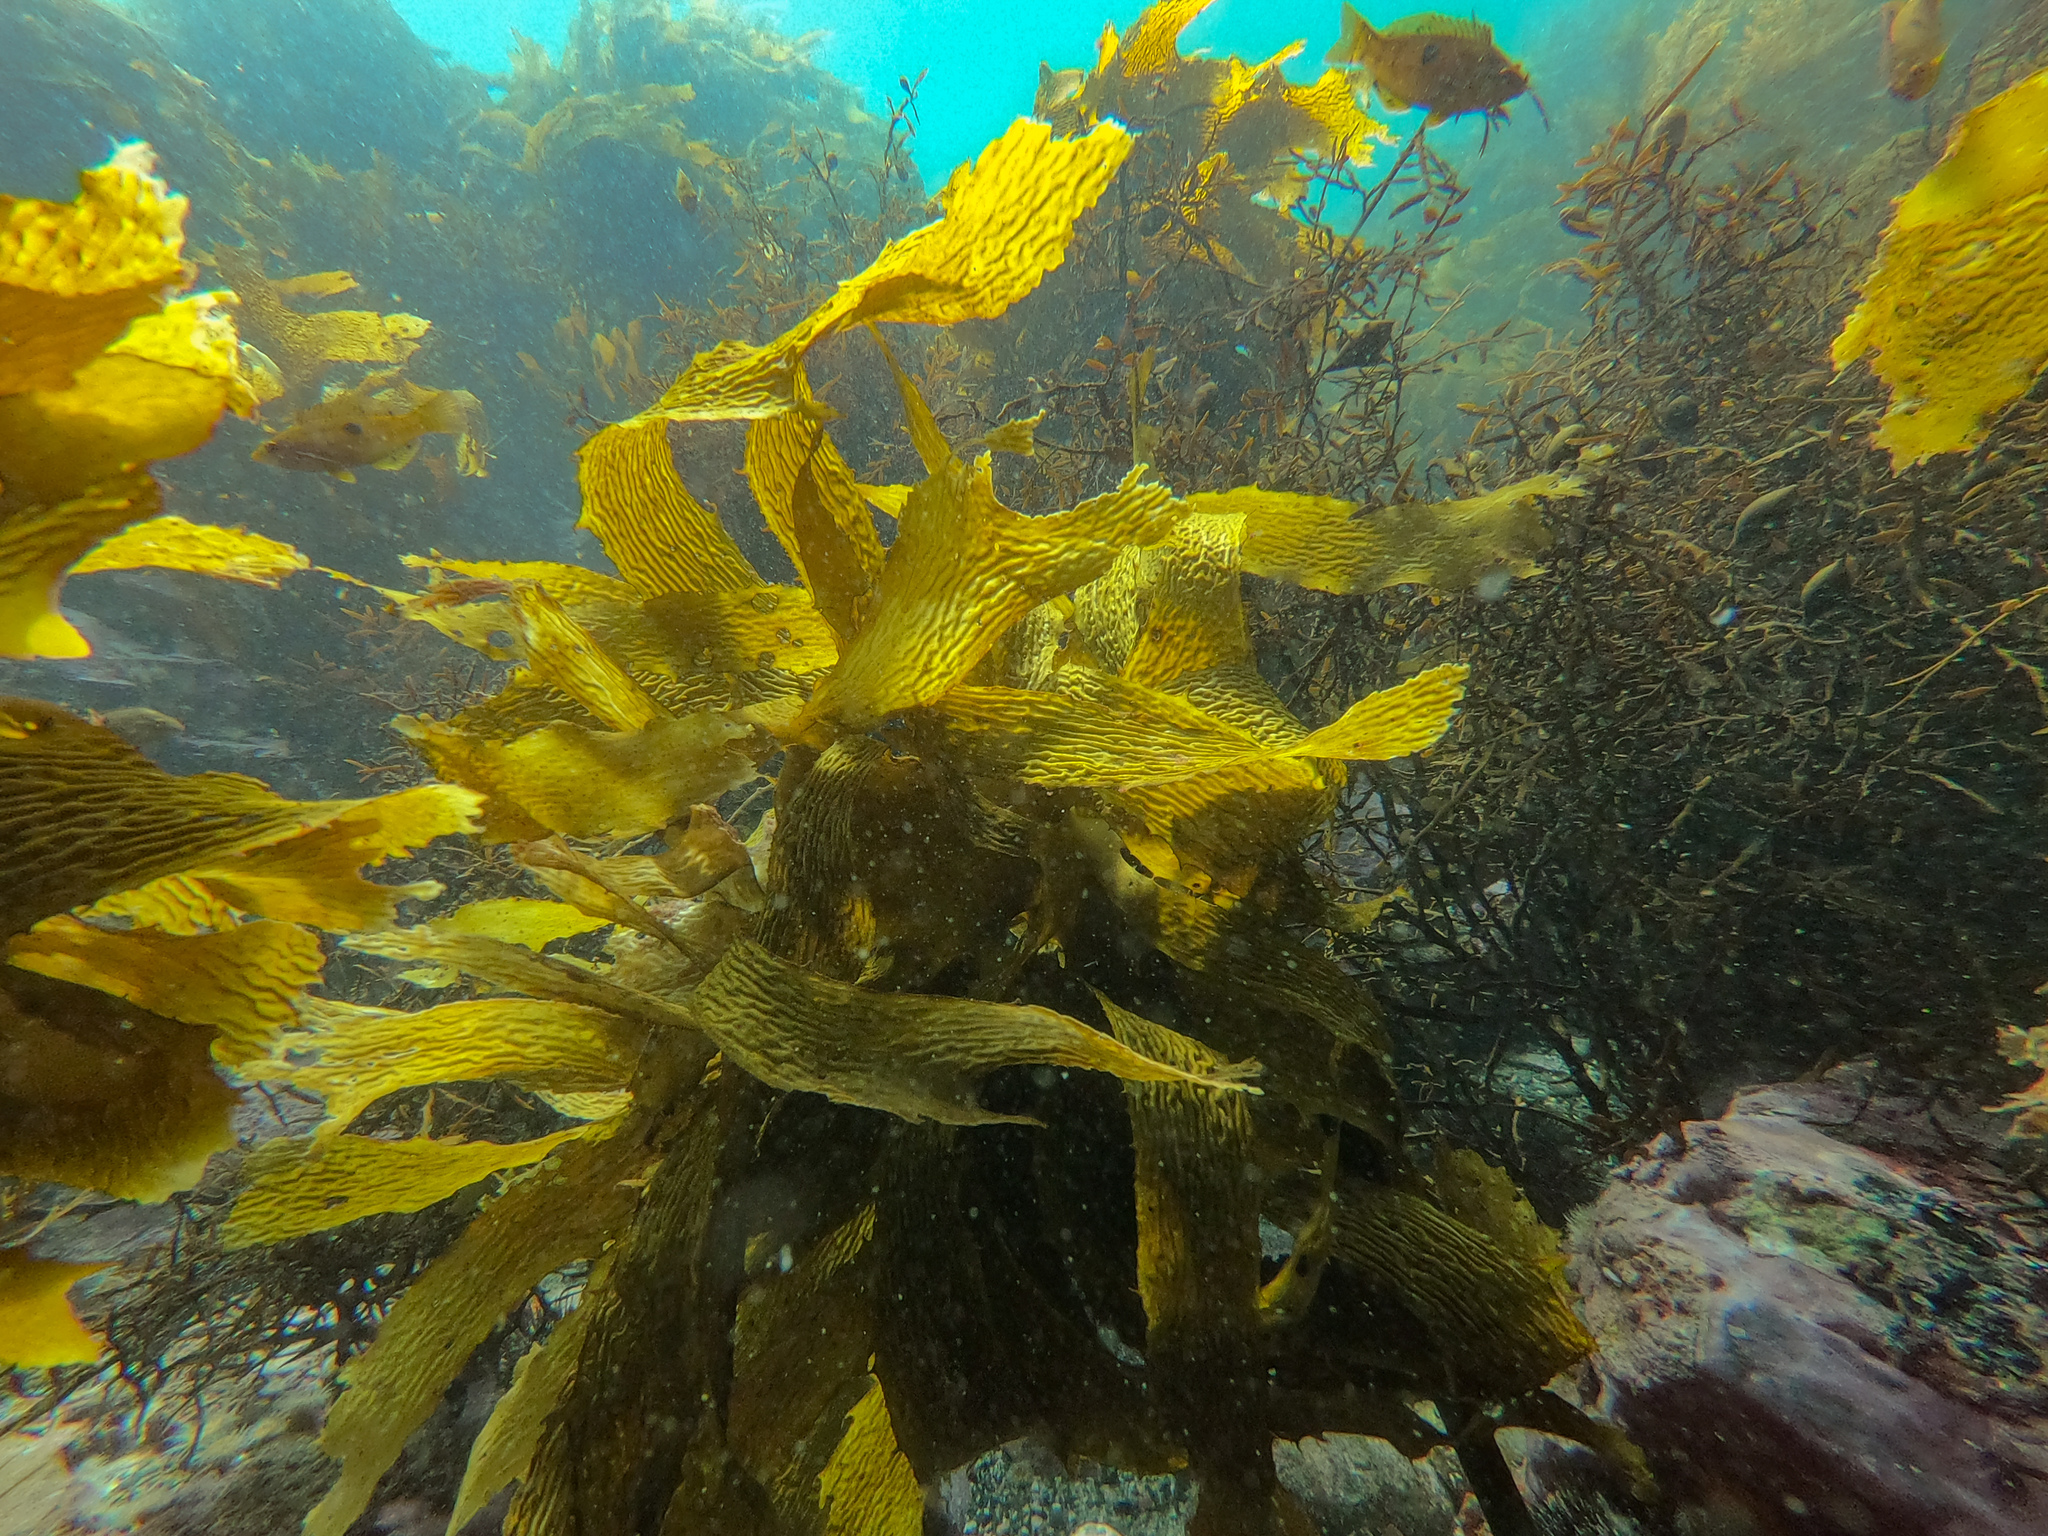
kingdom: Chromista
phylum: Ochrophyta
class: Phaeophyceae
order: Fucales
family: Sargassaceae
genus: Carpophyllum
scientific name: Carpophyllum angustifolium
